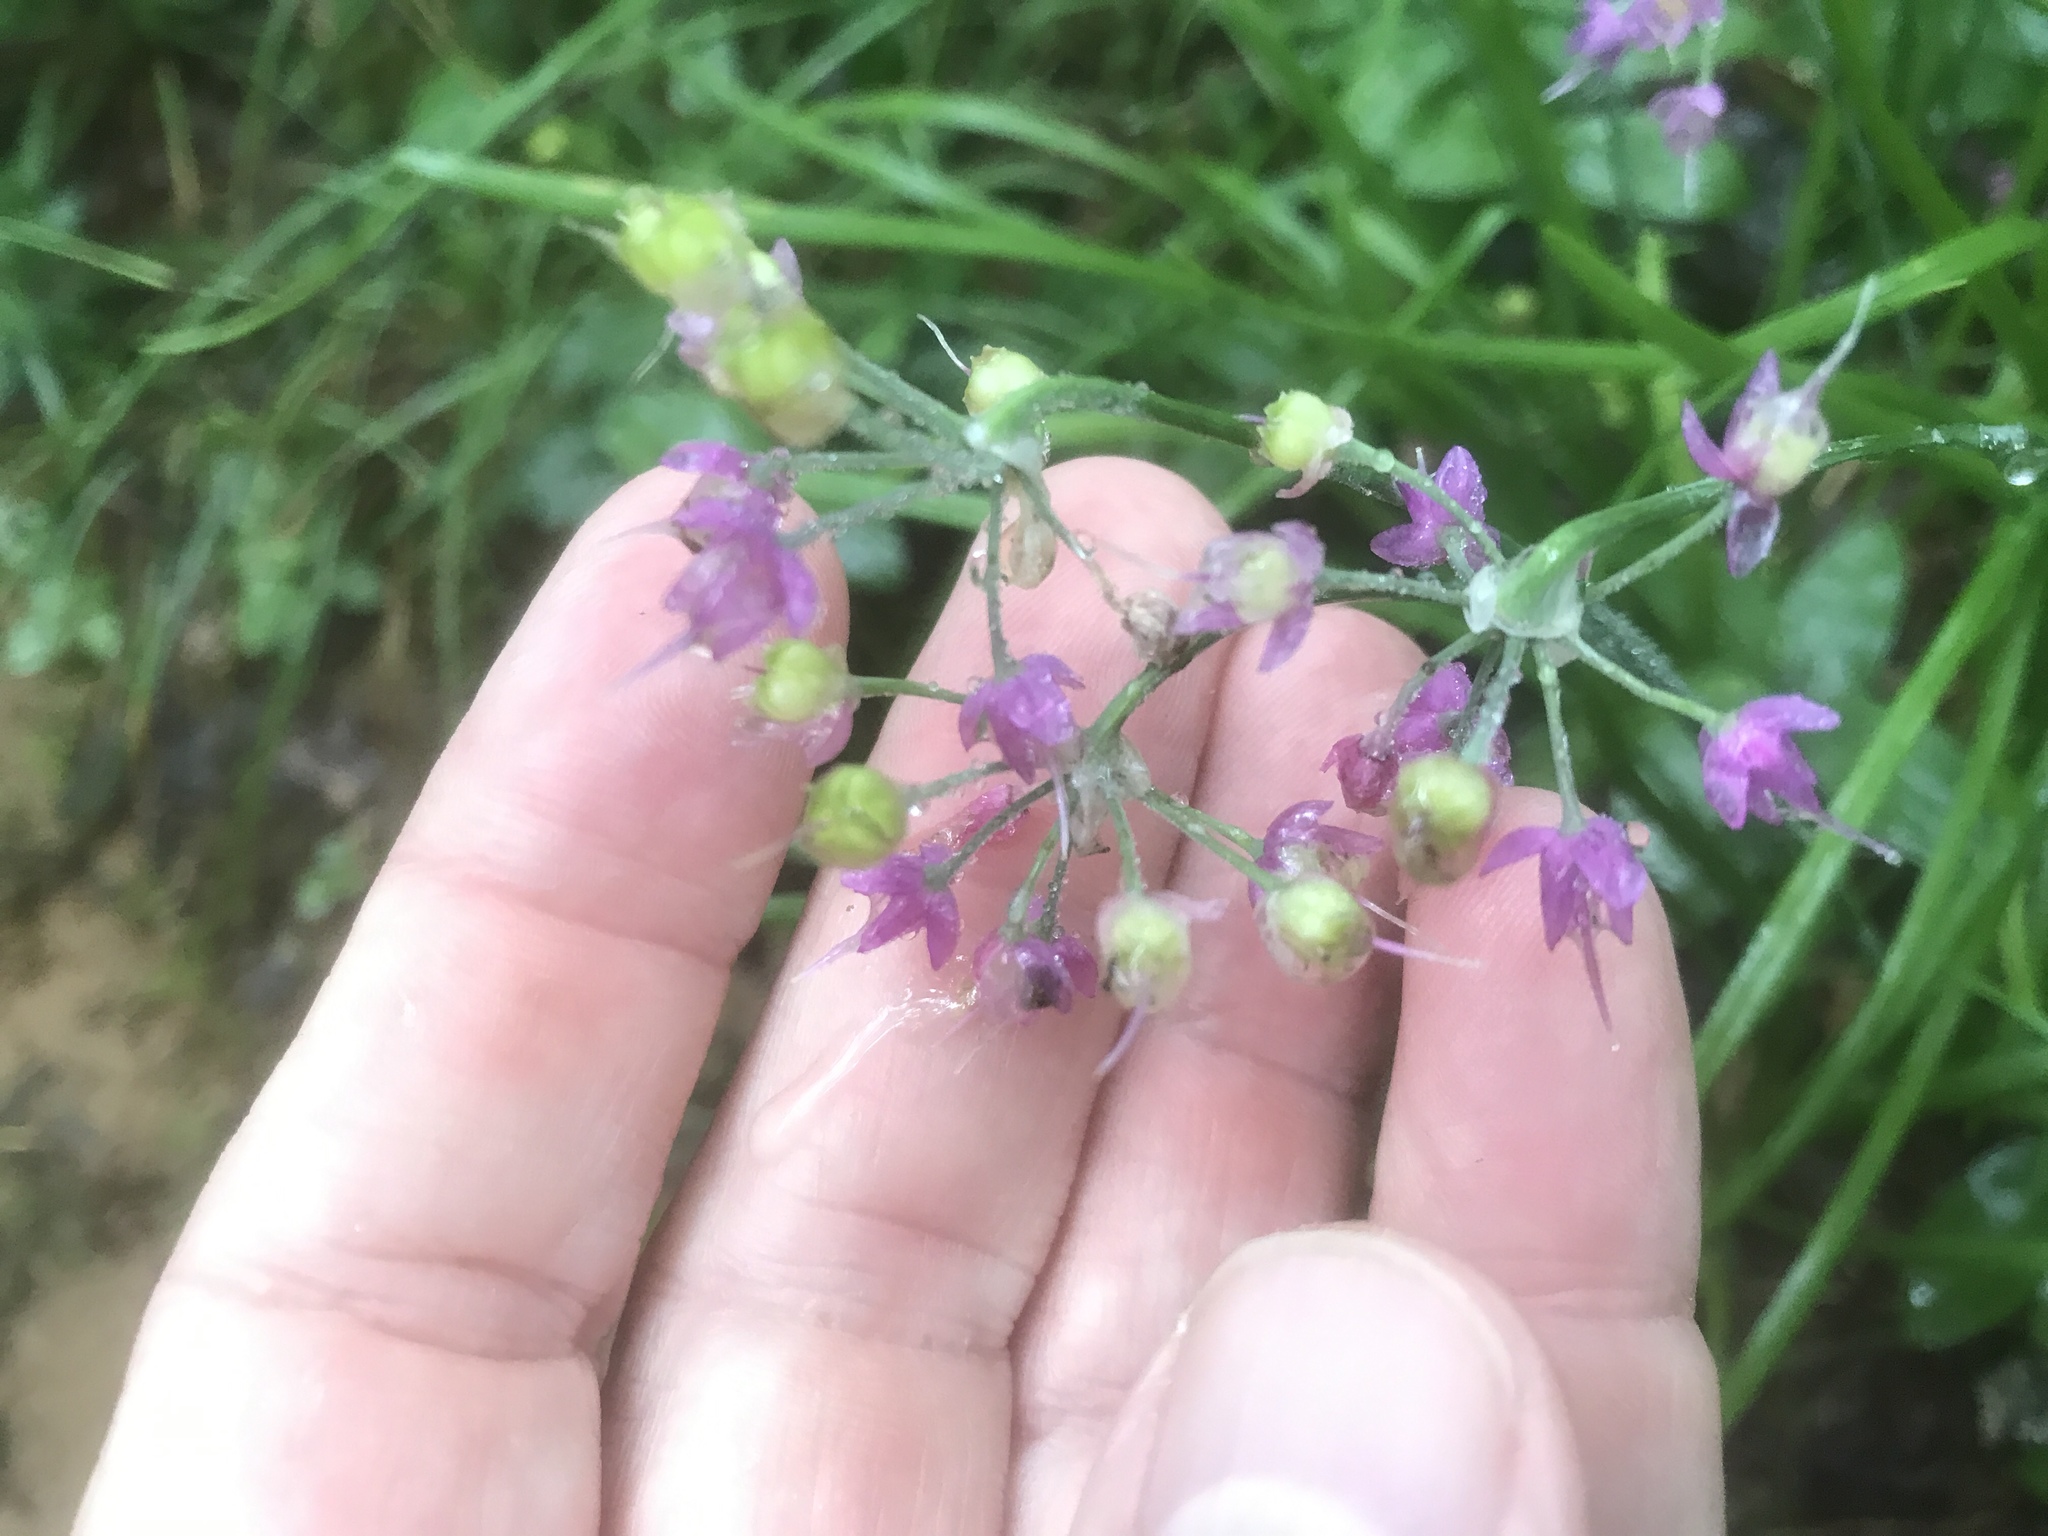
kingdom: Plantae
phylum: Tracheophyta
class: Liliopsida
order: Asparagales
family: Amaryllidaceae
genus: Allium
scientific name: Allium cernuum
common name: Nodding onion
